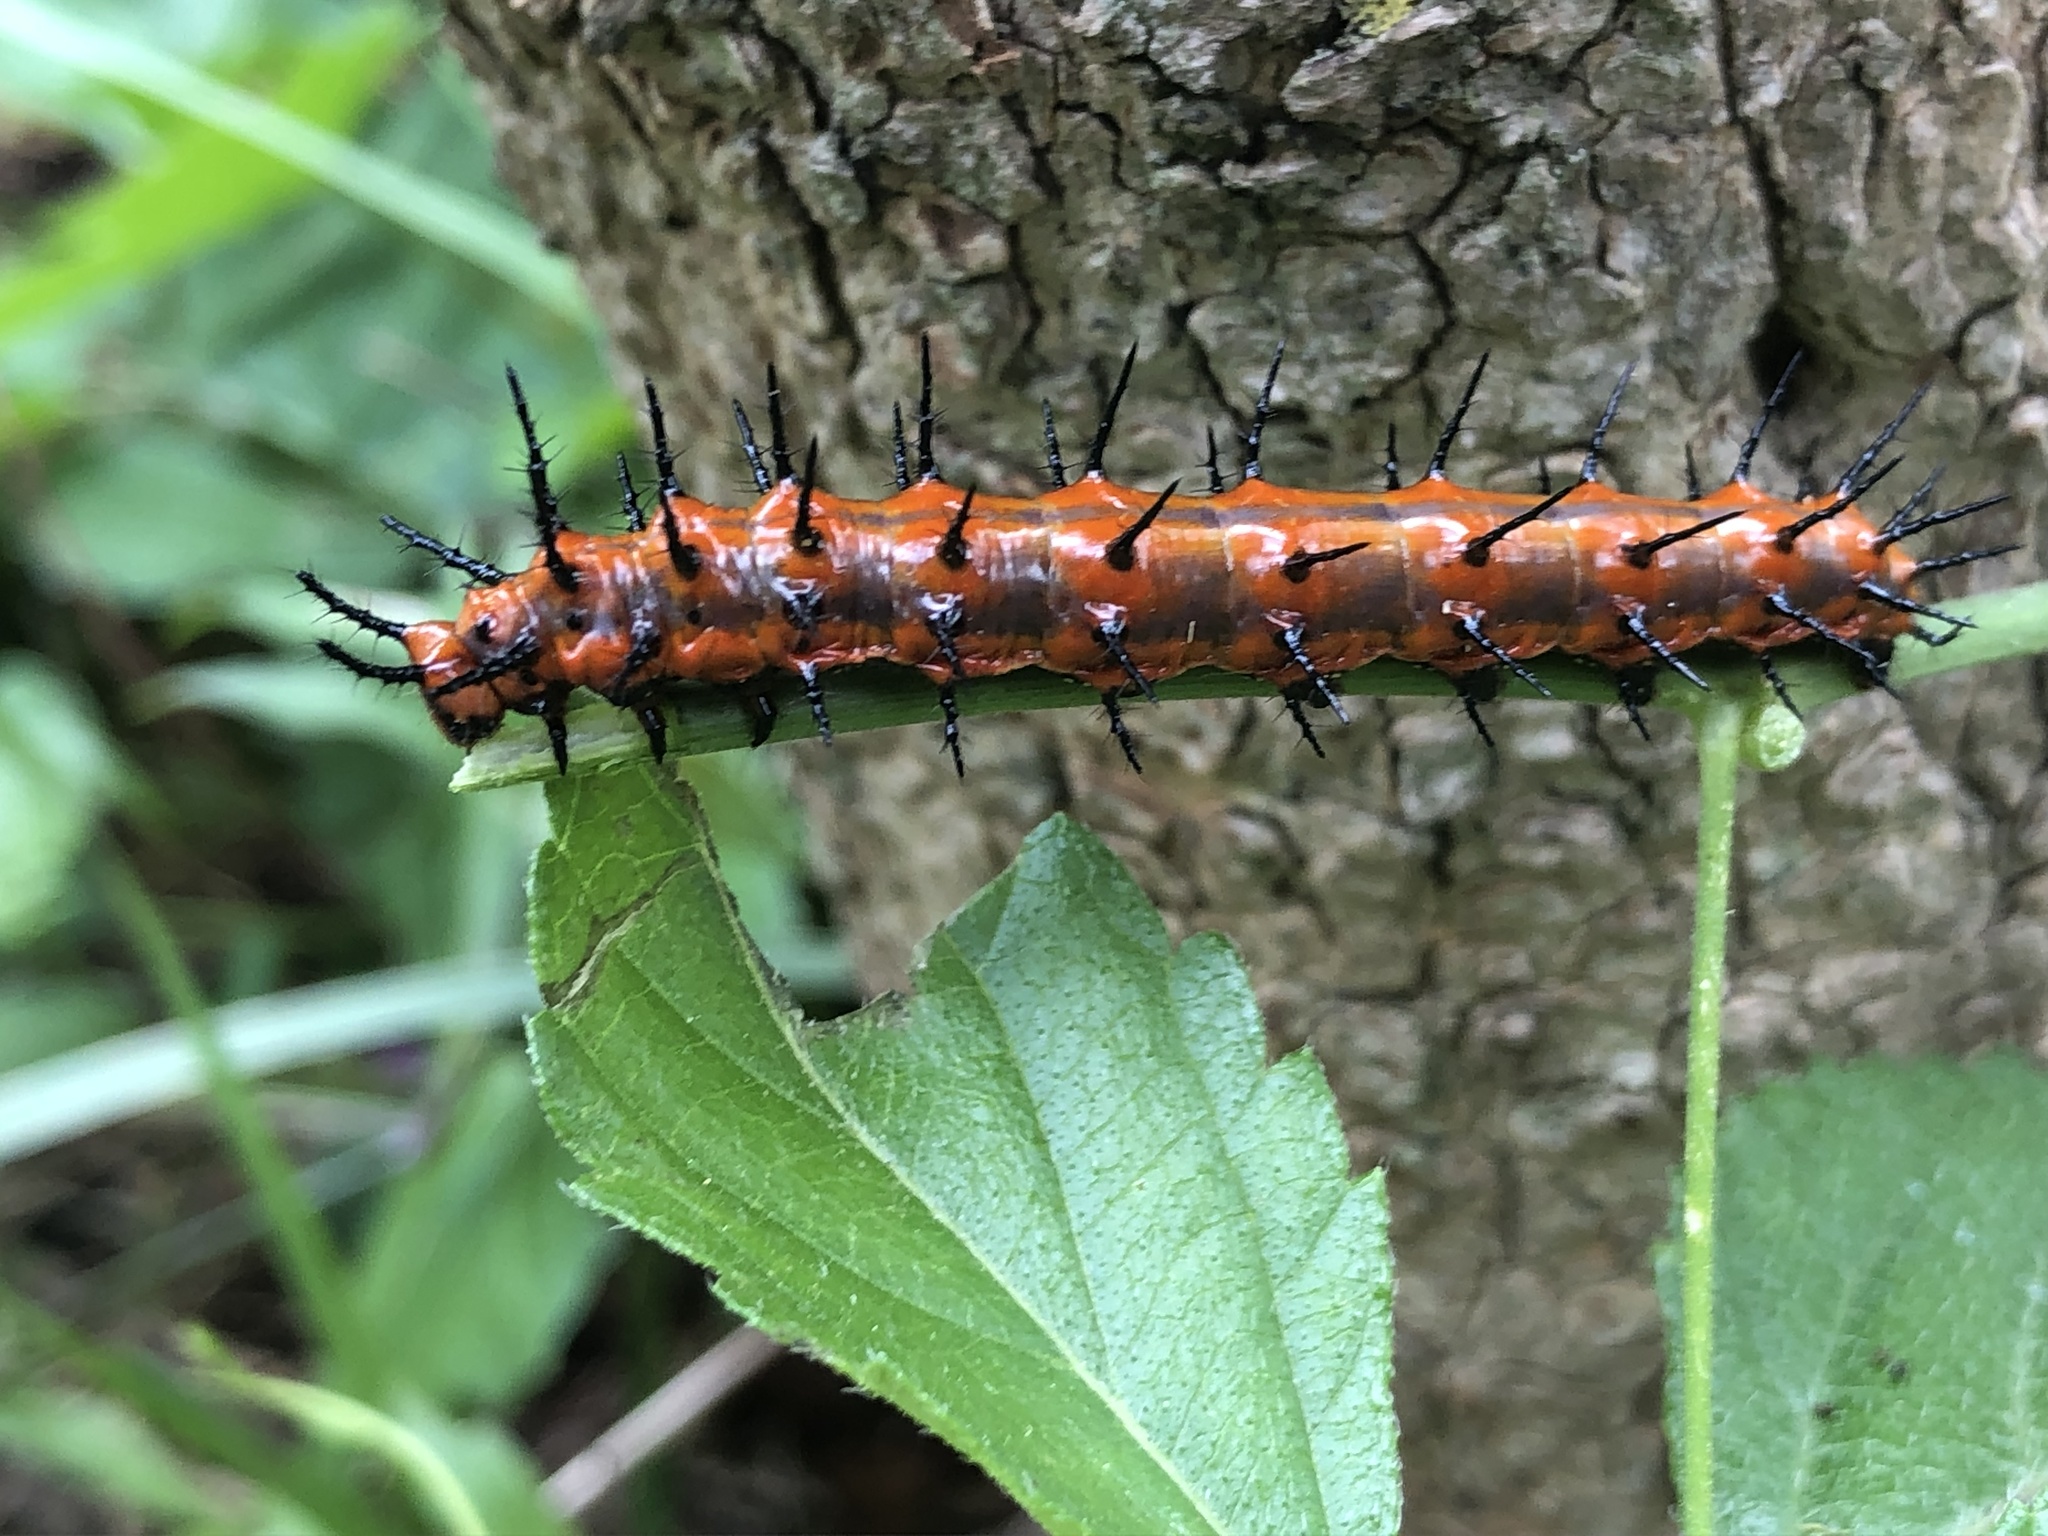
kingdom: Animalia
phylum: Arthropoda
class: Insecta
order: Lepidoptera
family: Nymphalidae
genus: Dione
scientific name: Dione vanillae
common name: Gulf fritillary
